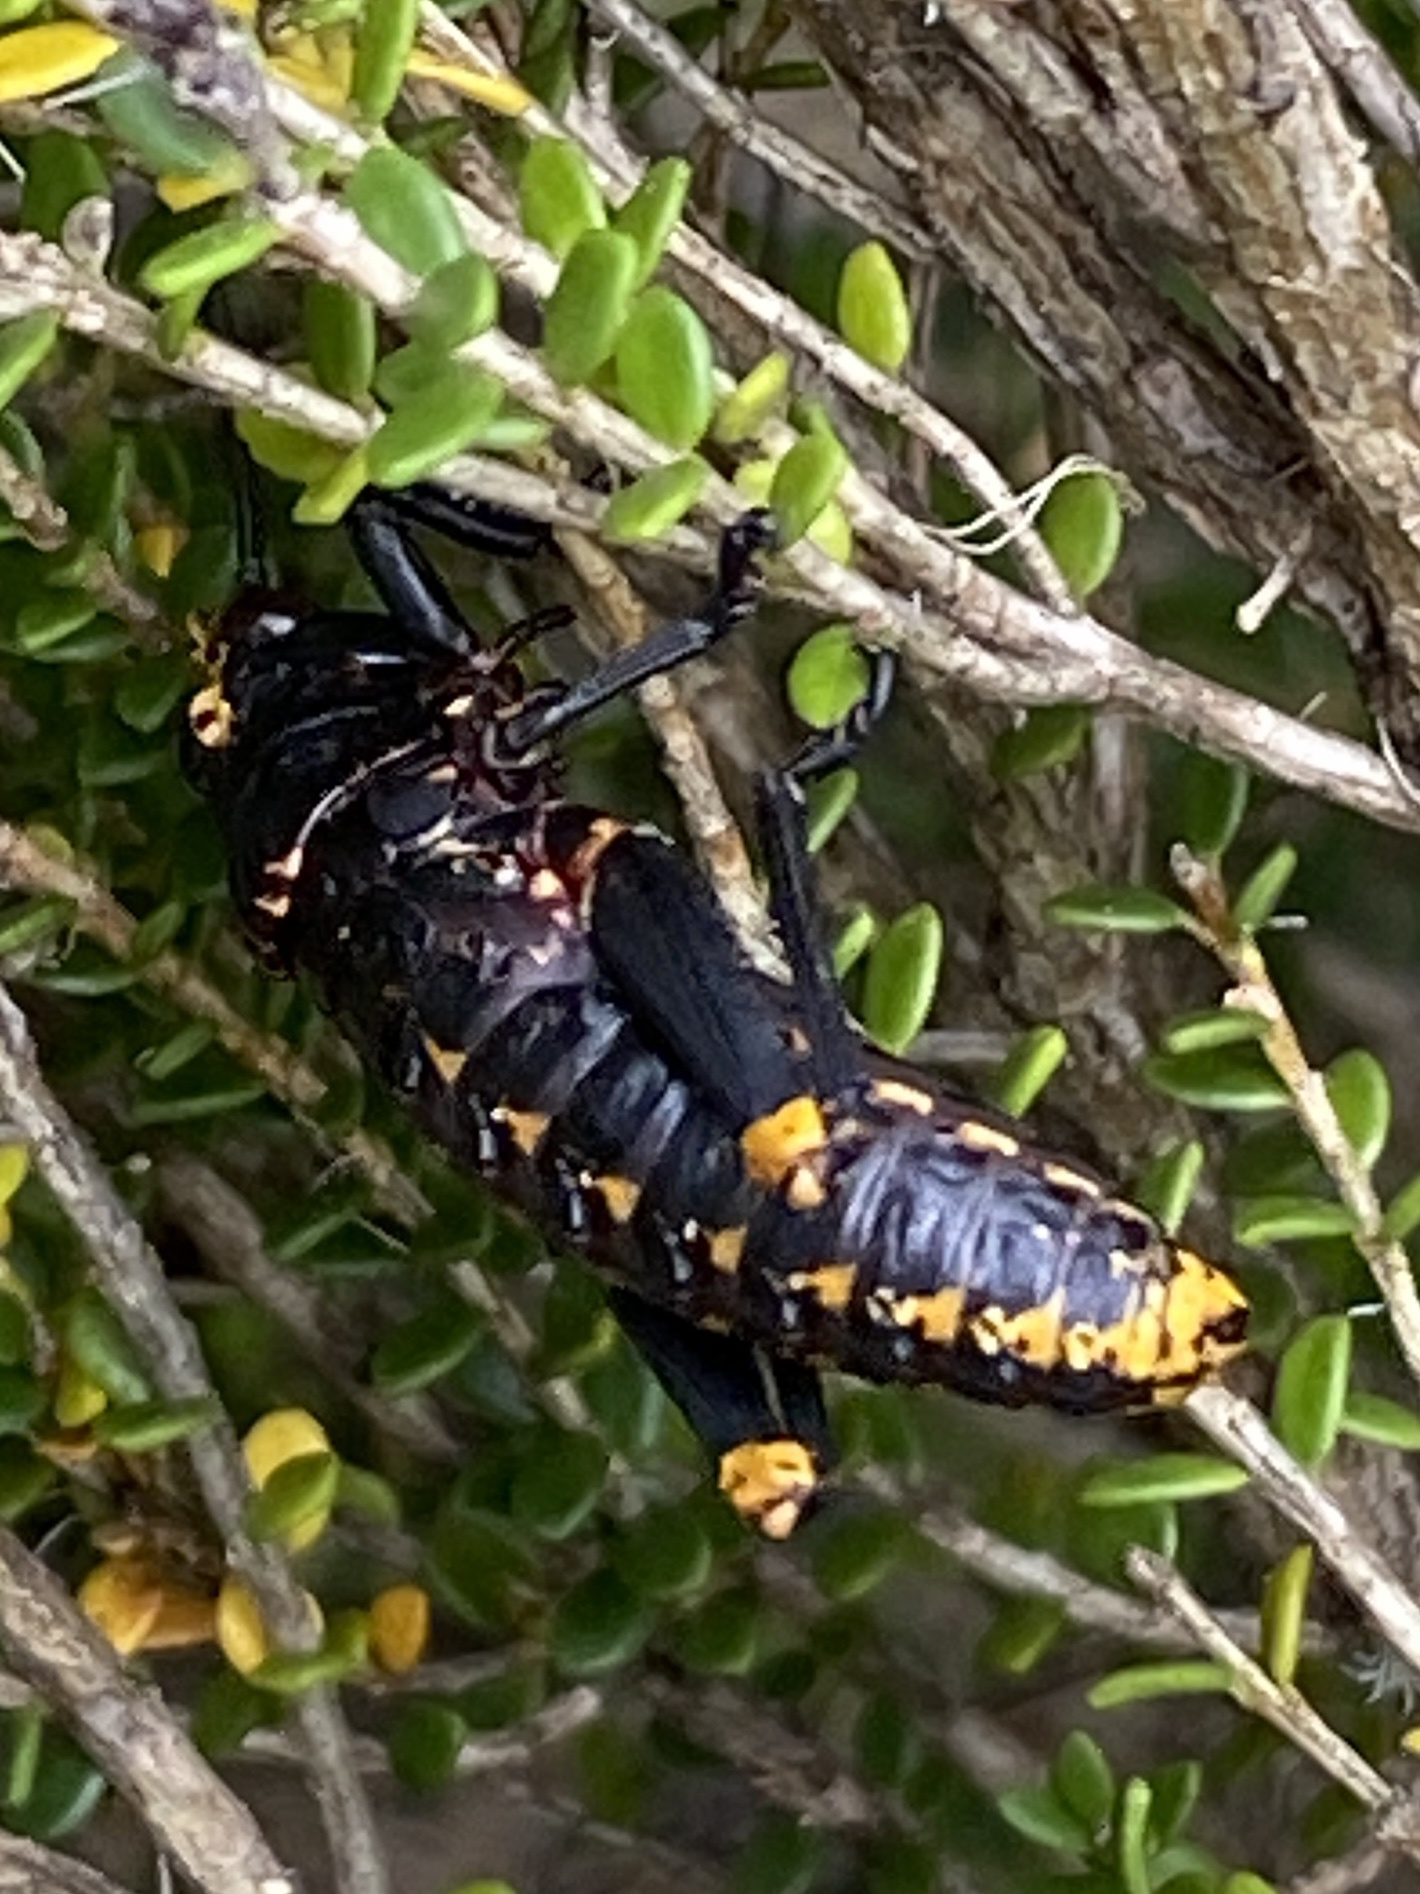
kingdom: Animalia
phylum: Arthropoda
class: Insecta
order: Orthoptera
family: Pyrgomorphidae
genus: Dictyophorus
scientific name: Dictyophorus spumans
